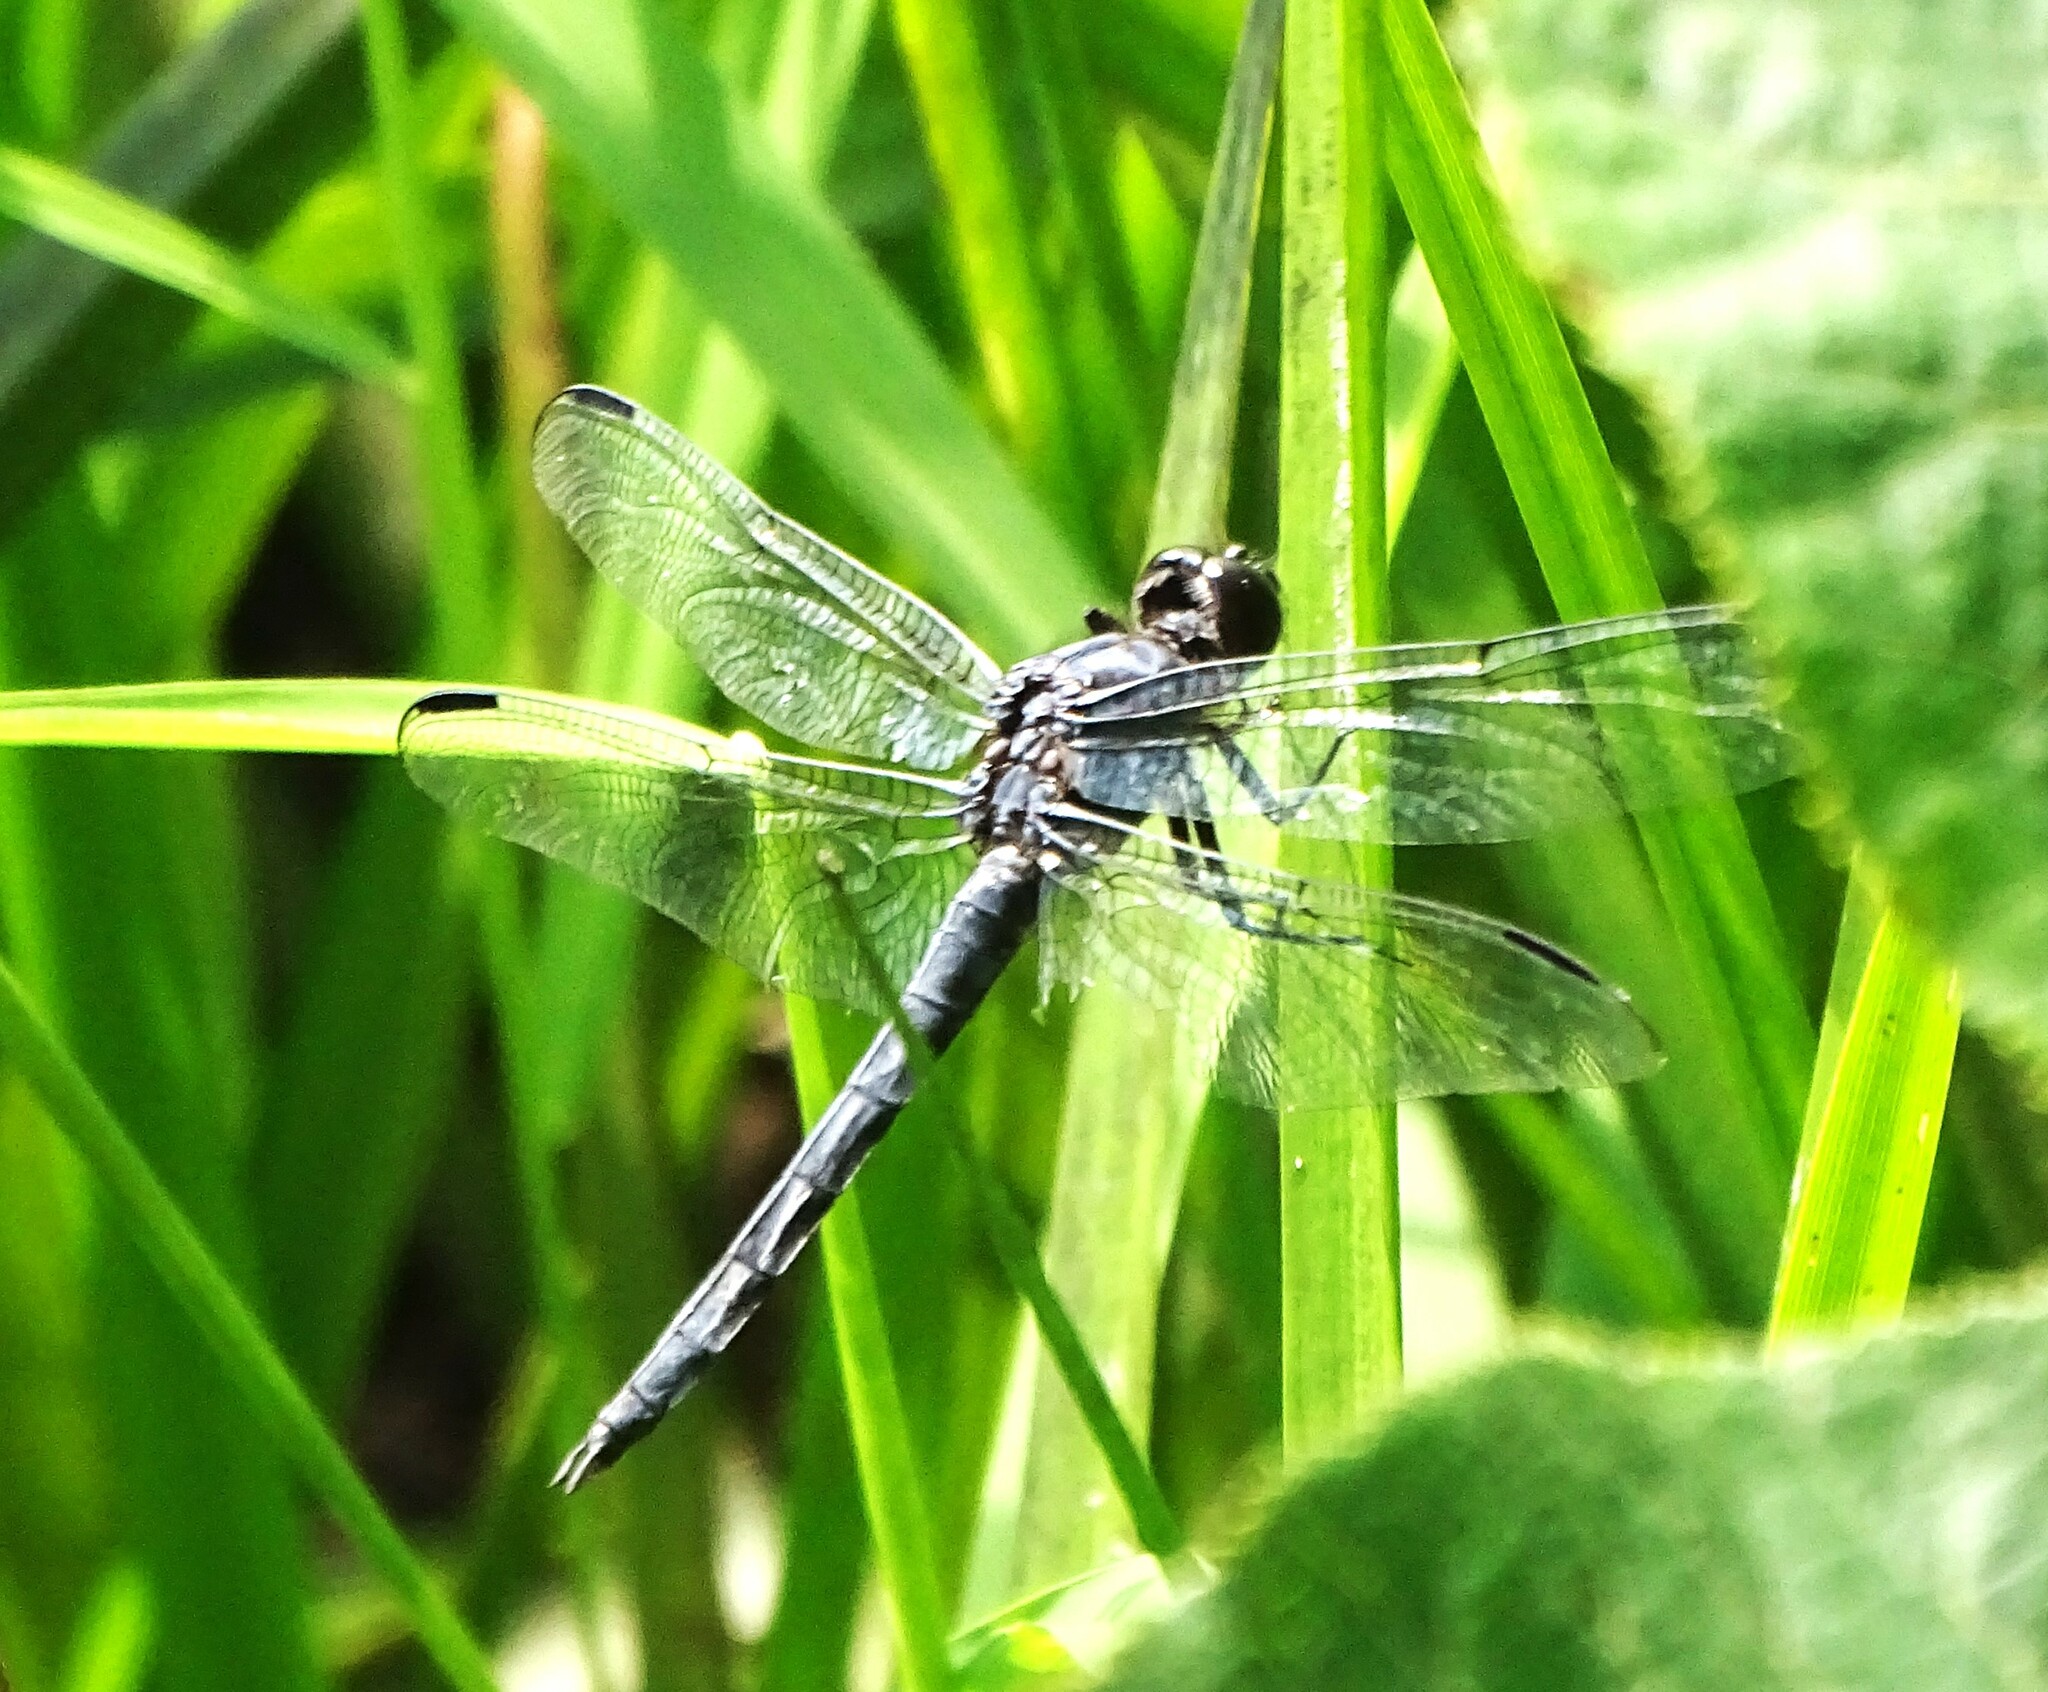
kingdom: Animalia
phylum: Arthropoda
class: Insecta
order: Odonata
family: Libellulidae
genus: Libellula
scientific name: Libellula incesta
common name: Slaty skimmer
